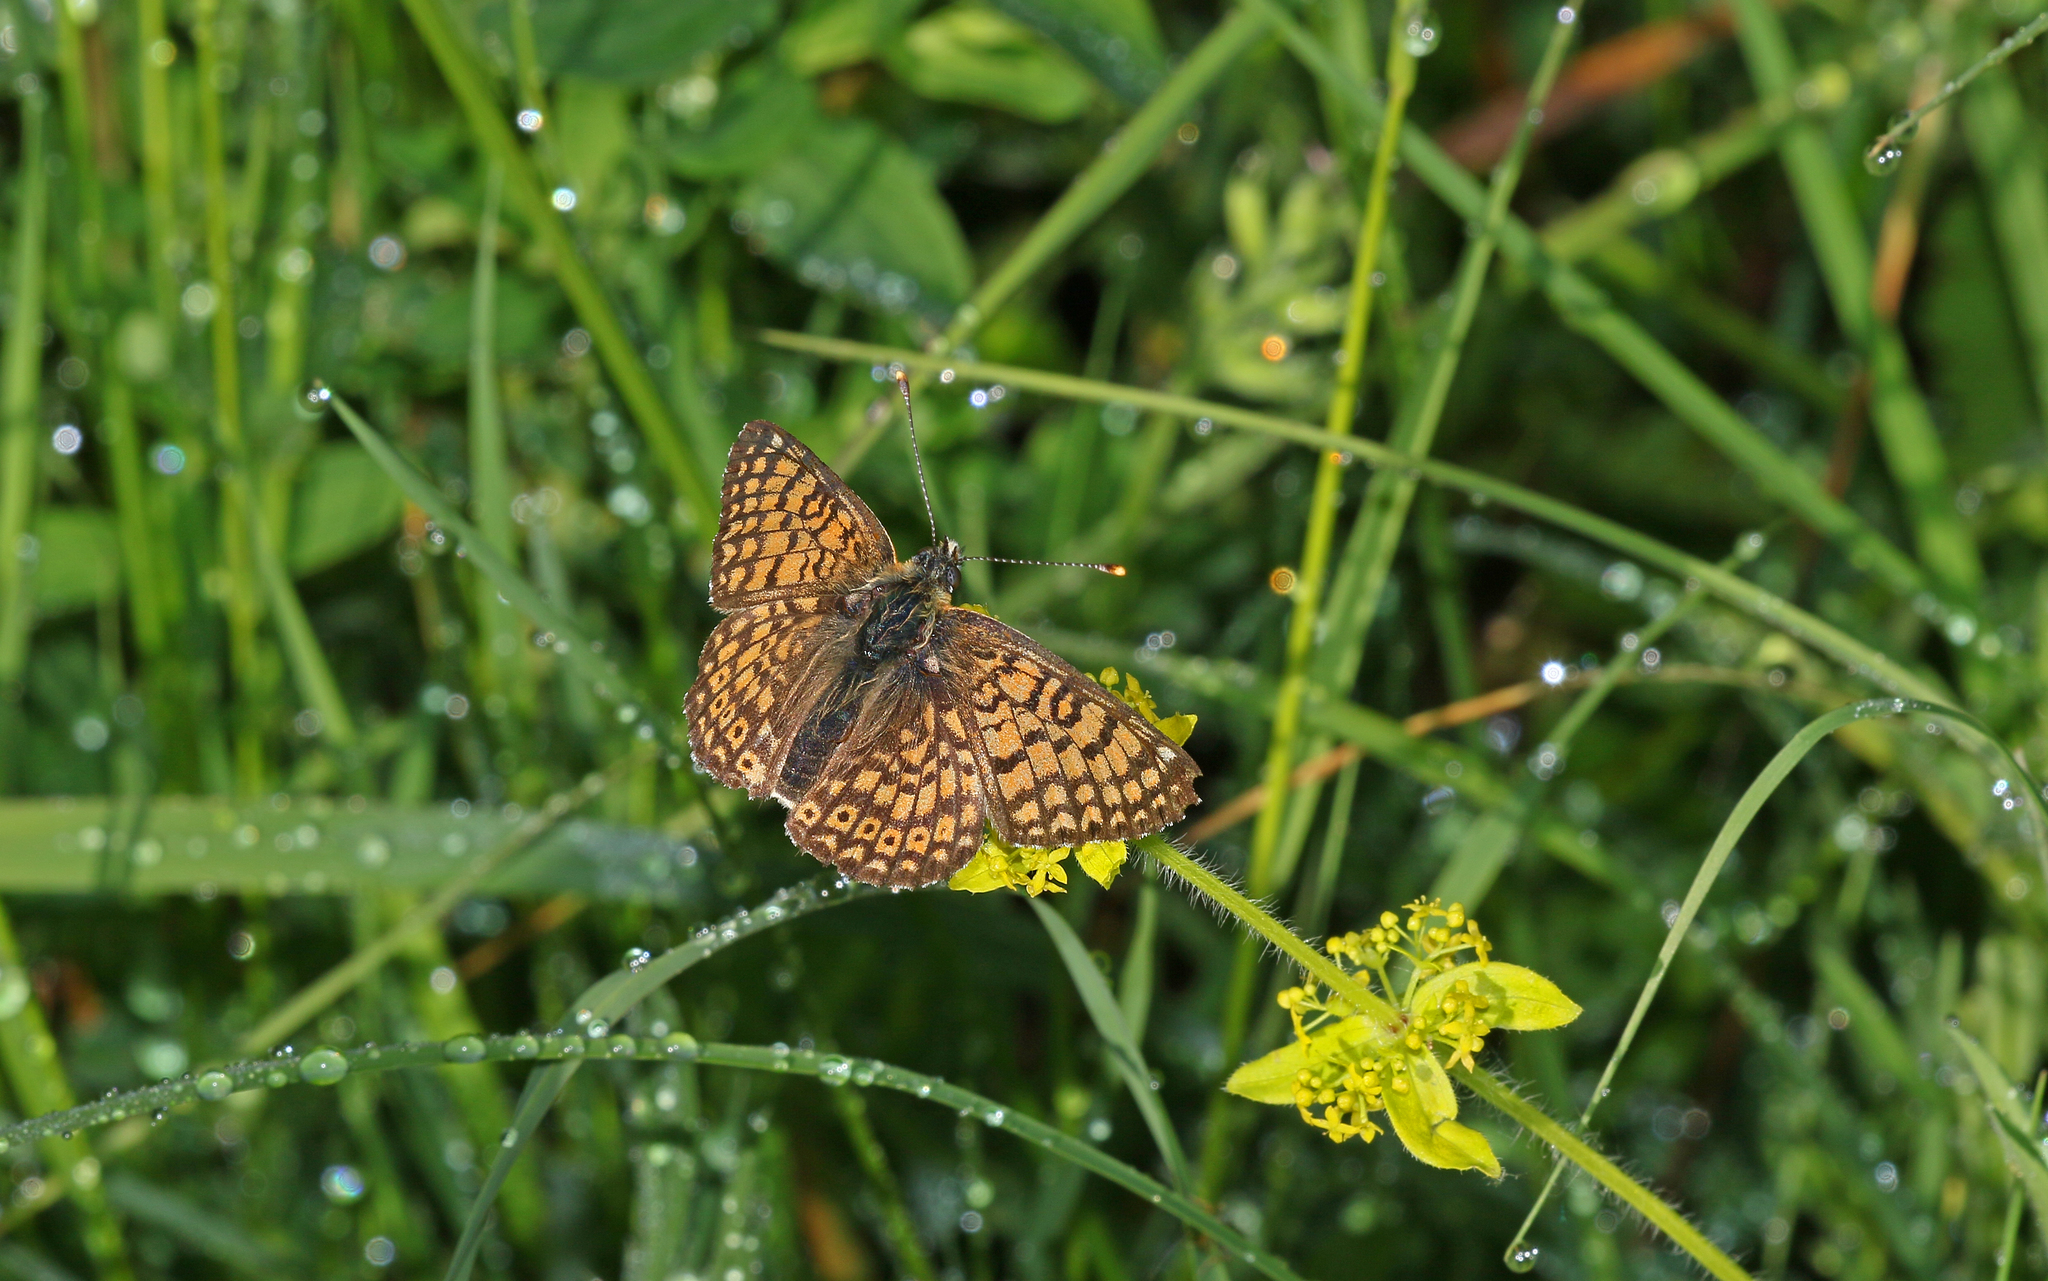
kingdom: Animalia
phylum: Arthropoda
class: Insecta
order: Lepidoptera
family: Nymphalidae
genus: Melitaea
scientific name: Melitaea cinxia
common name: Glanville fritillary
